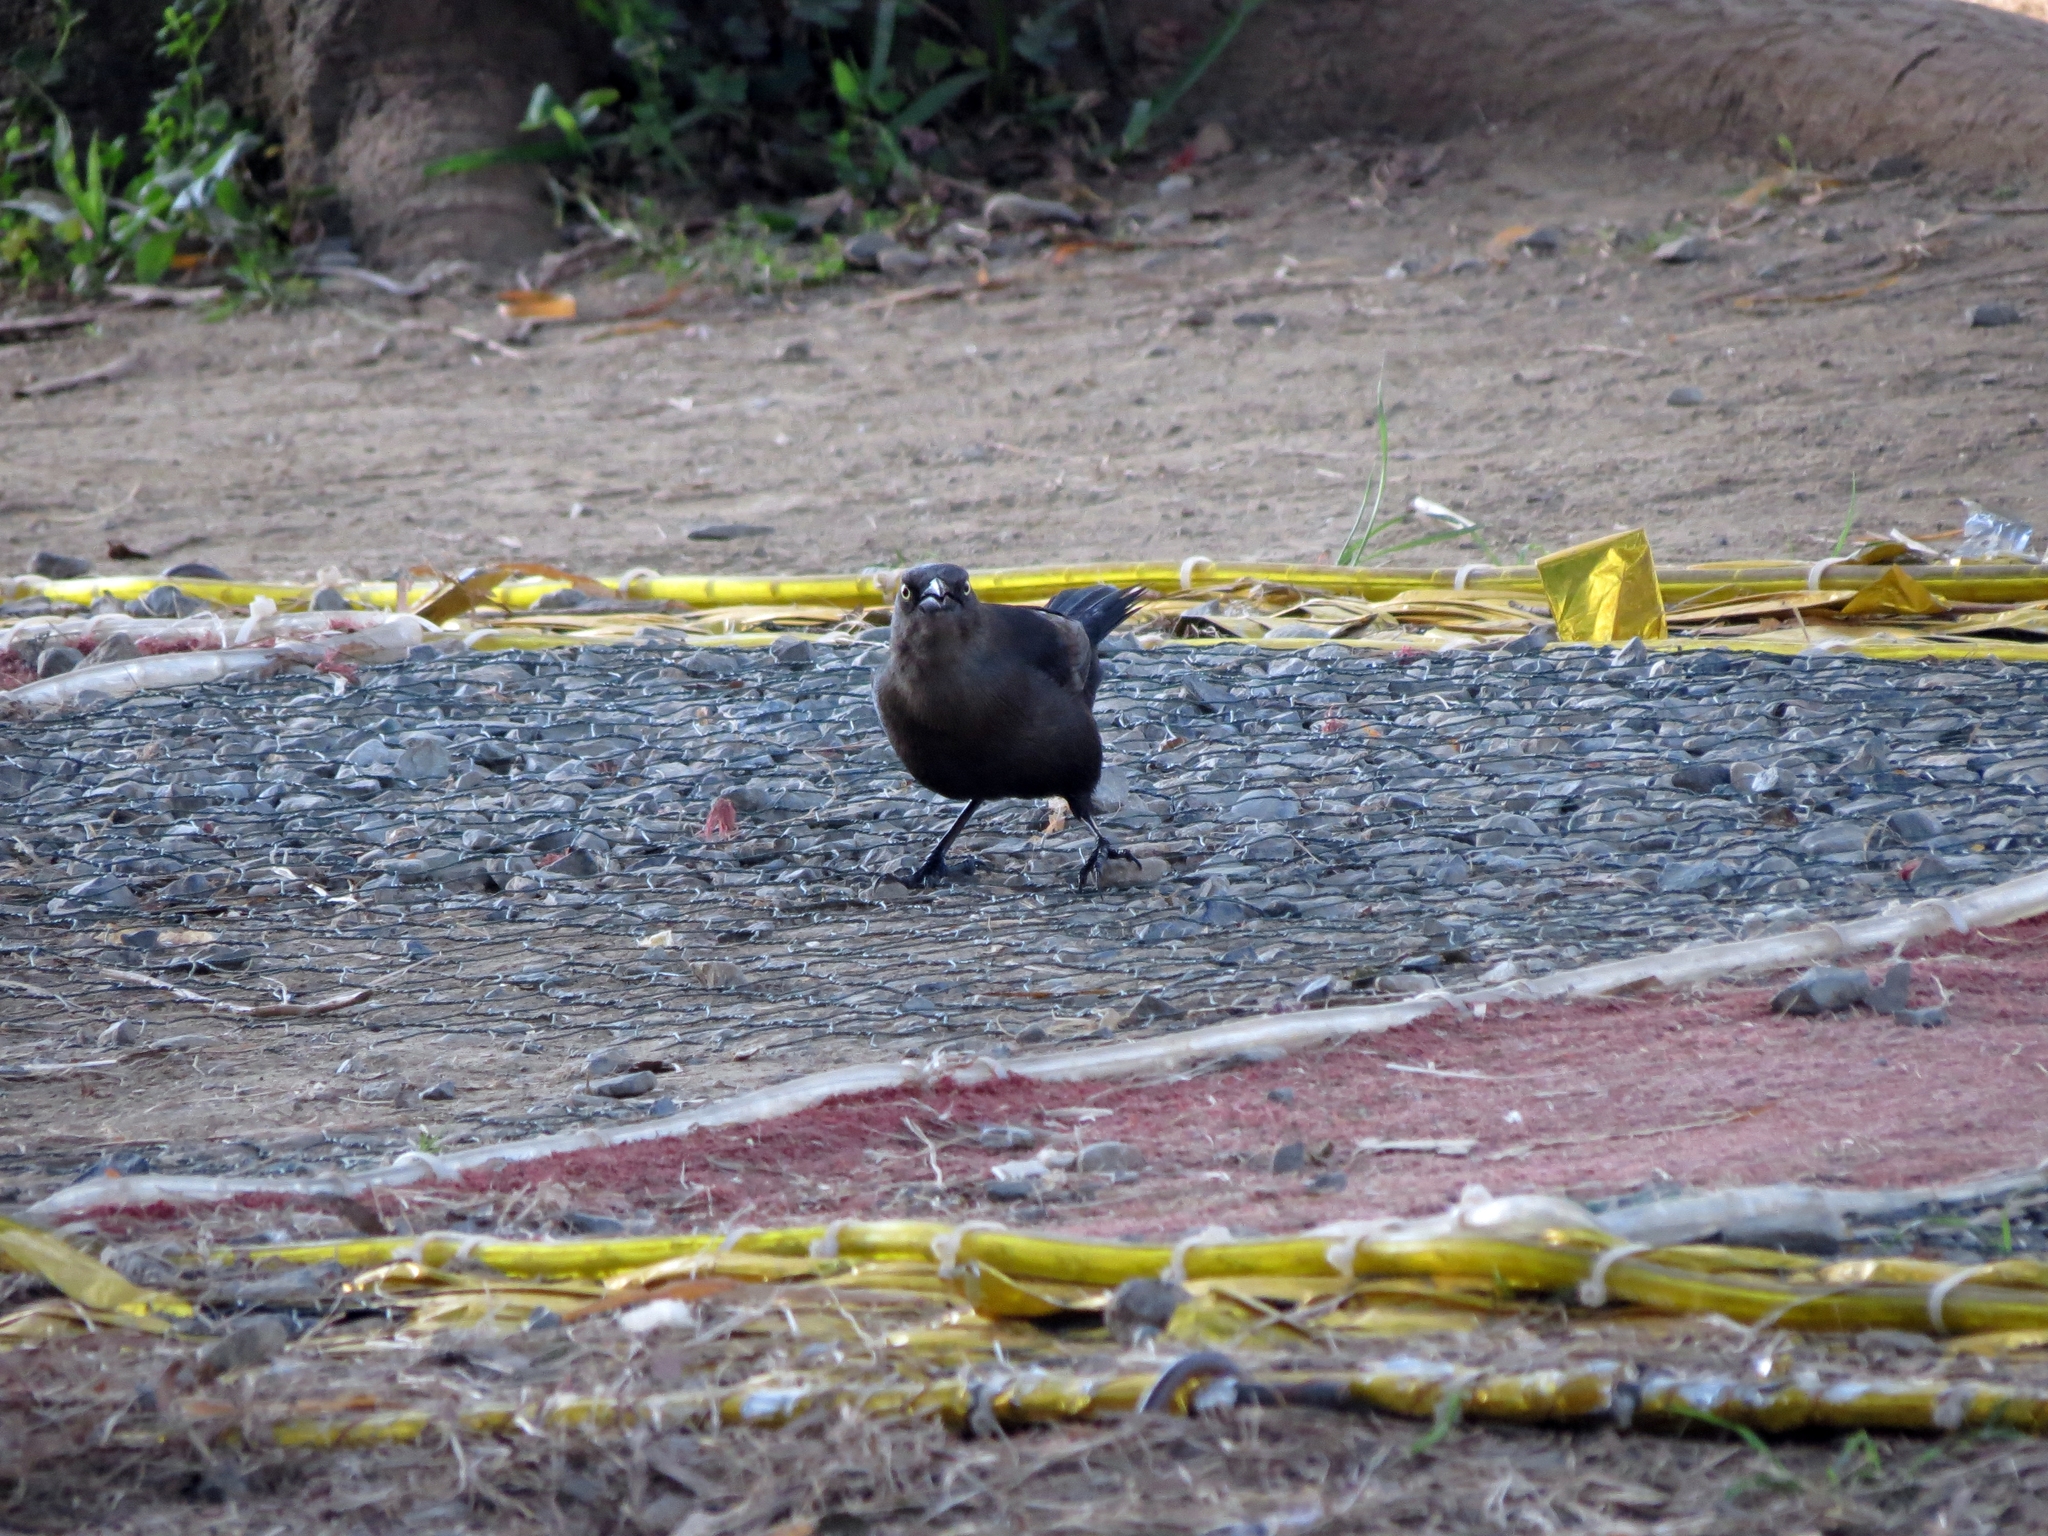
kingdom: Animalia
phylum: Chordata
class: Aves
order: Passeriformes
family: Icteridae
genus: Quiscalus
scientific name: Quiscalus lugubris
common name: Carib grackle
